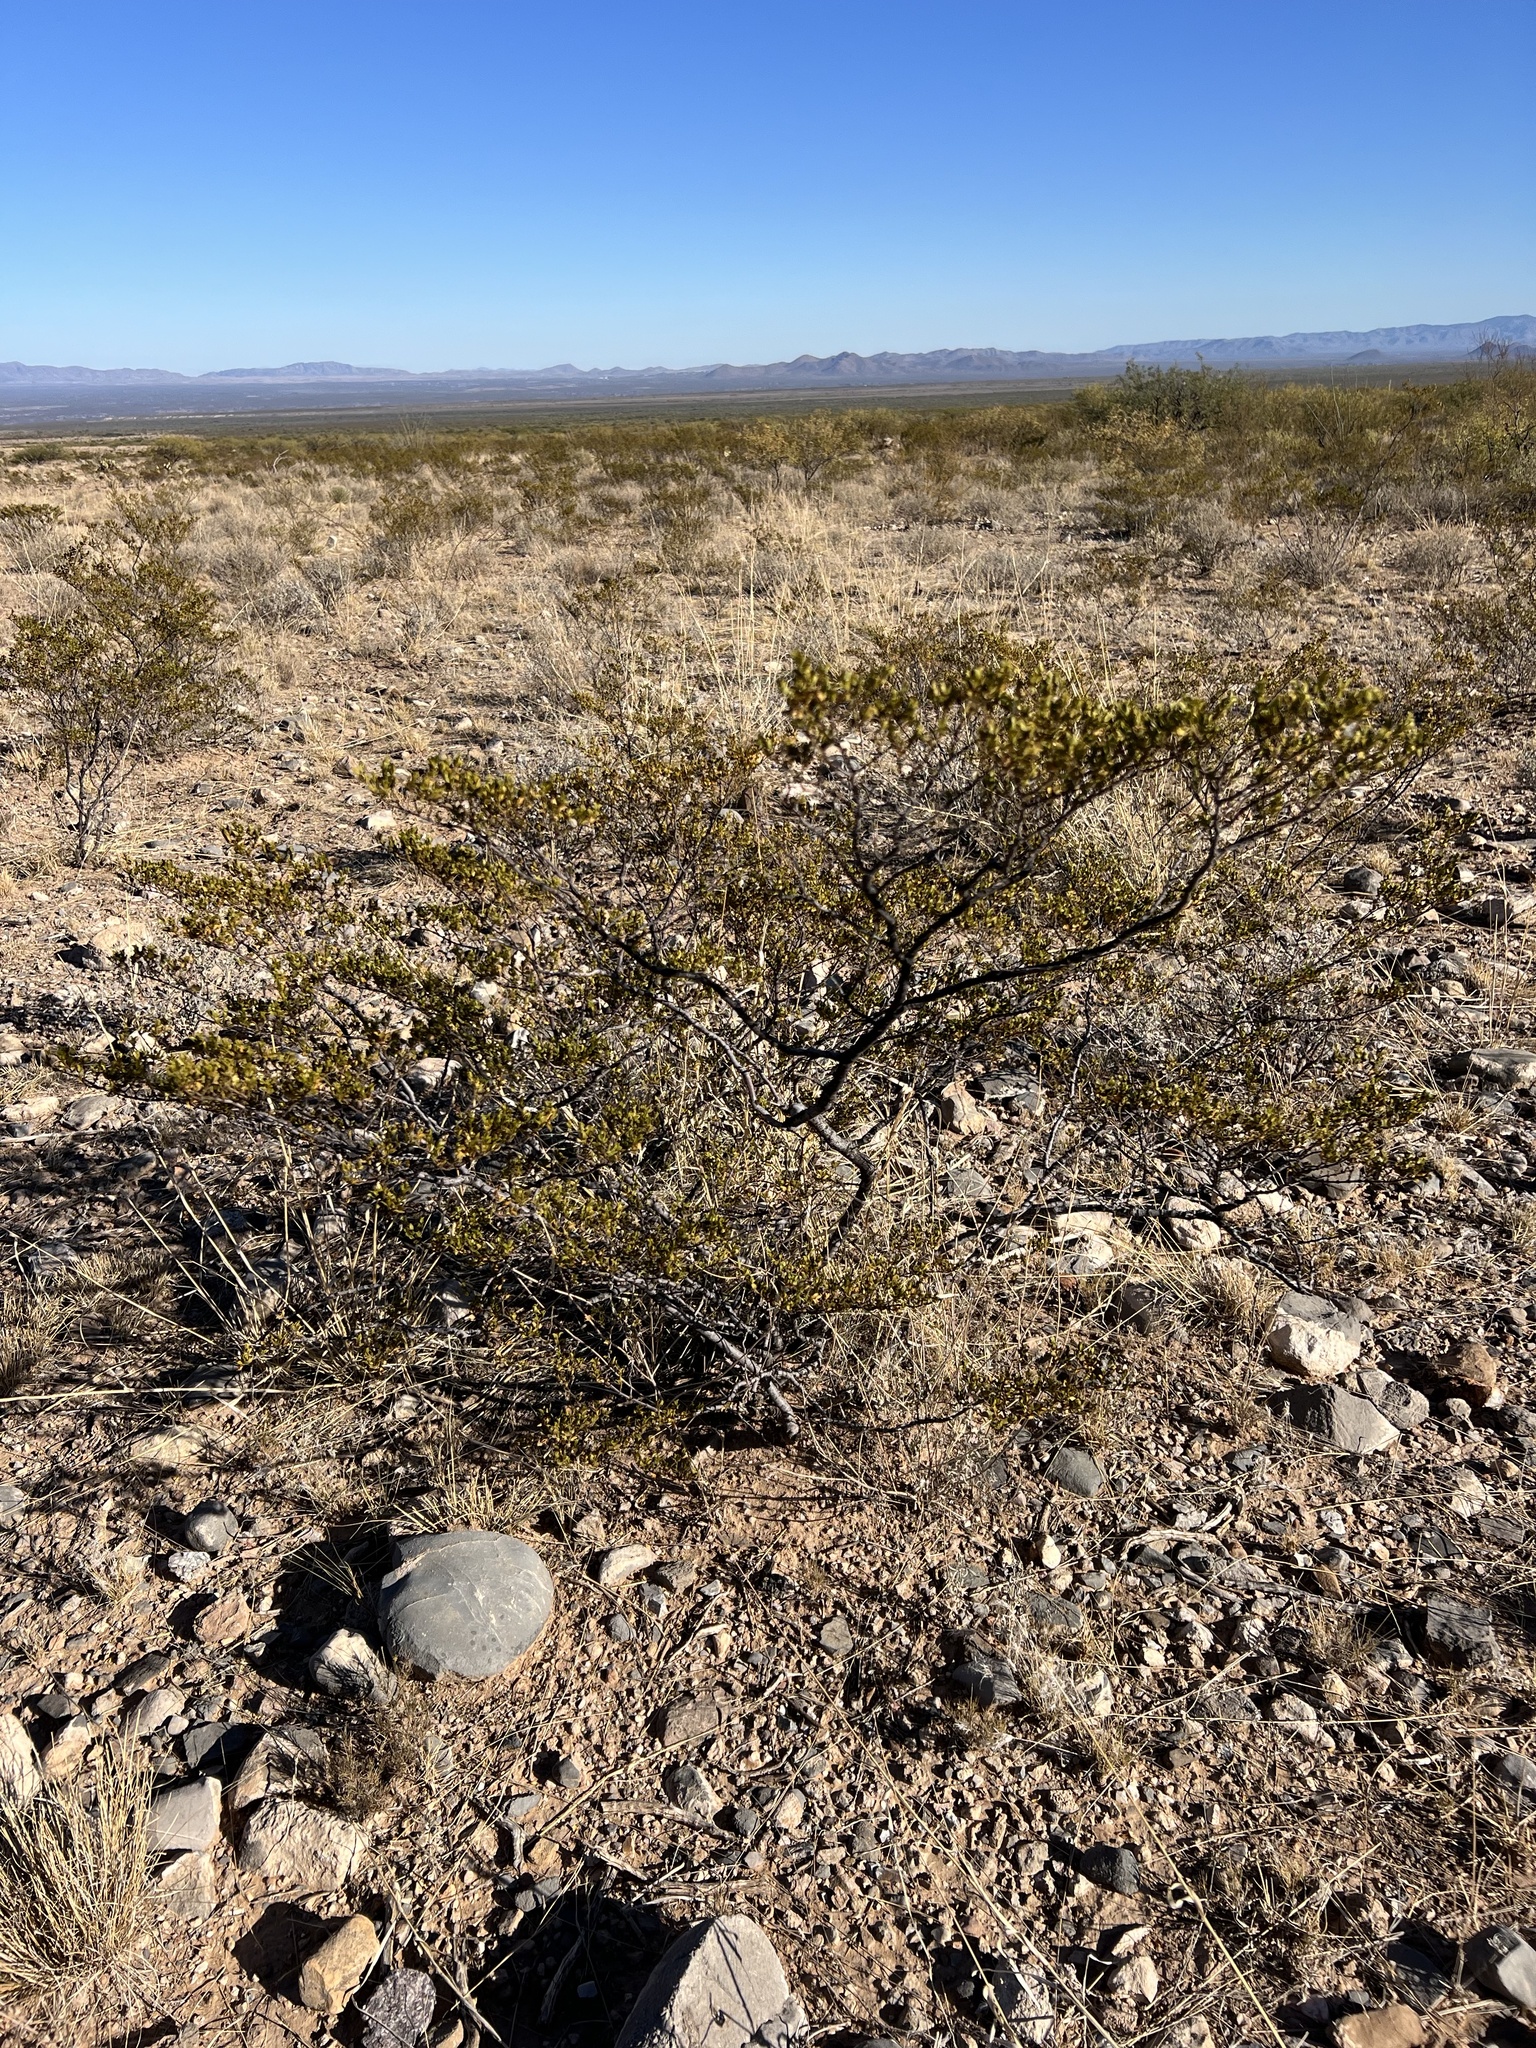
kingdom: Plantae
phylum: Tracheophyta
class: Magnoliopsida
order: Zygophyllales
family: Zygophyllaceae
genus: Larrea
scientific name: Larrea tridentata
